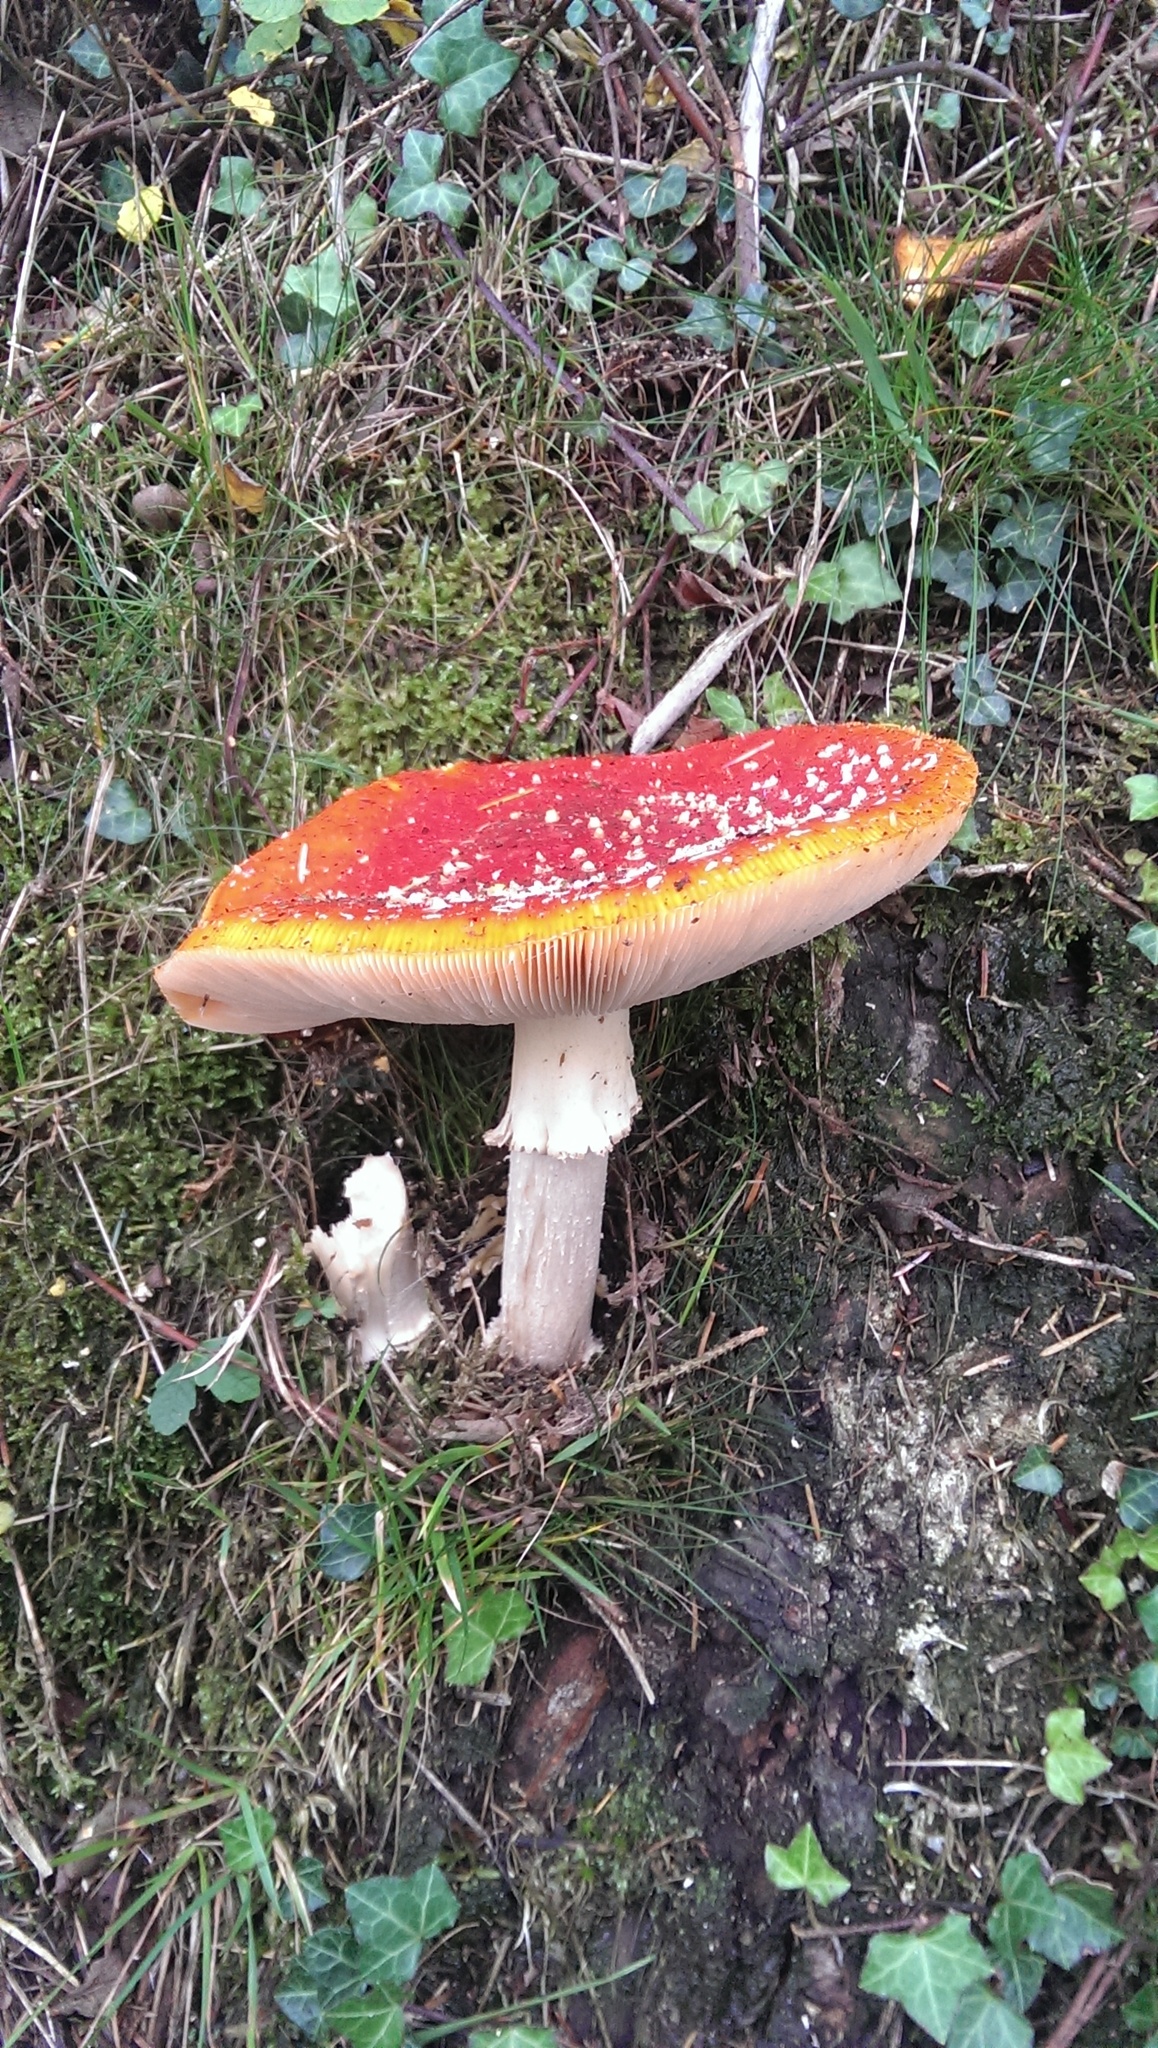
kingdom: Fungi
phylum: Basidiomycota
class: Agaricomycetes
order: Agaricales
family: Amanitaceae
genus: Amanita
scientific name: Amanita muscaria
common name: Fly agaric
